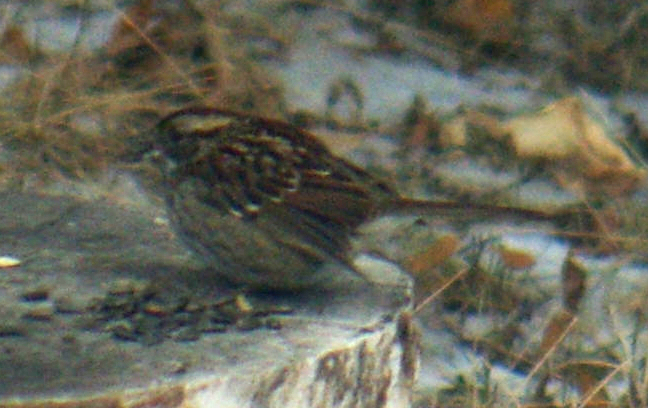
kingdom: Animalia
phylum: Chordata
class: Aves
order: Passeriformes
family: Passerellidae
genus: Zonotrichia
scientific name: Zonotrichia albicollis
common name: White-throated sparrow
